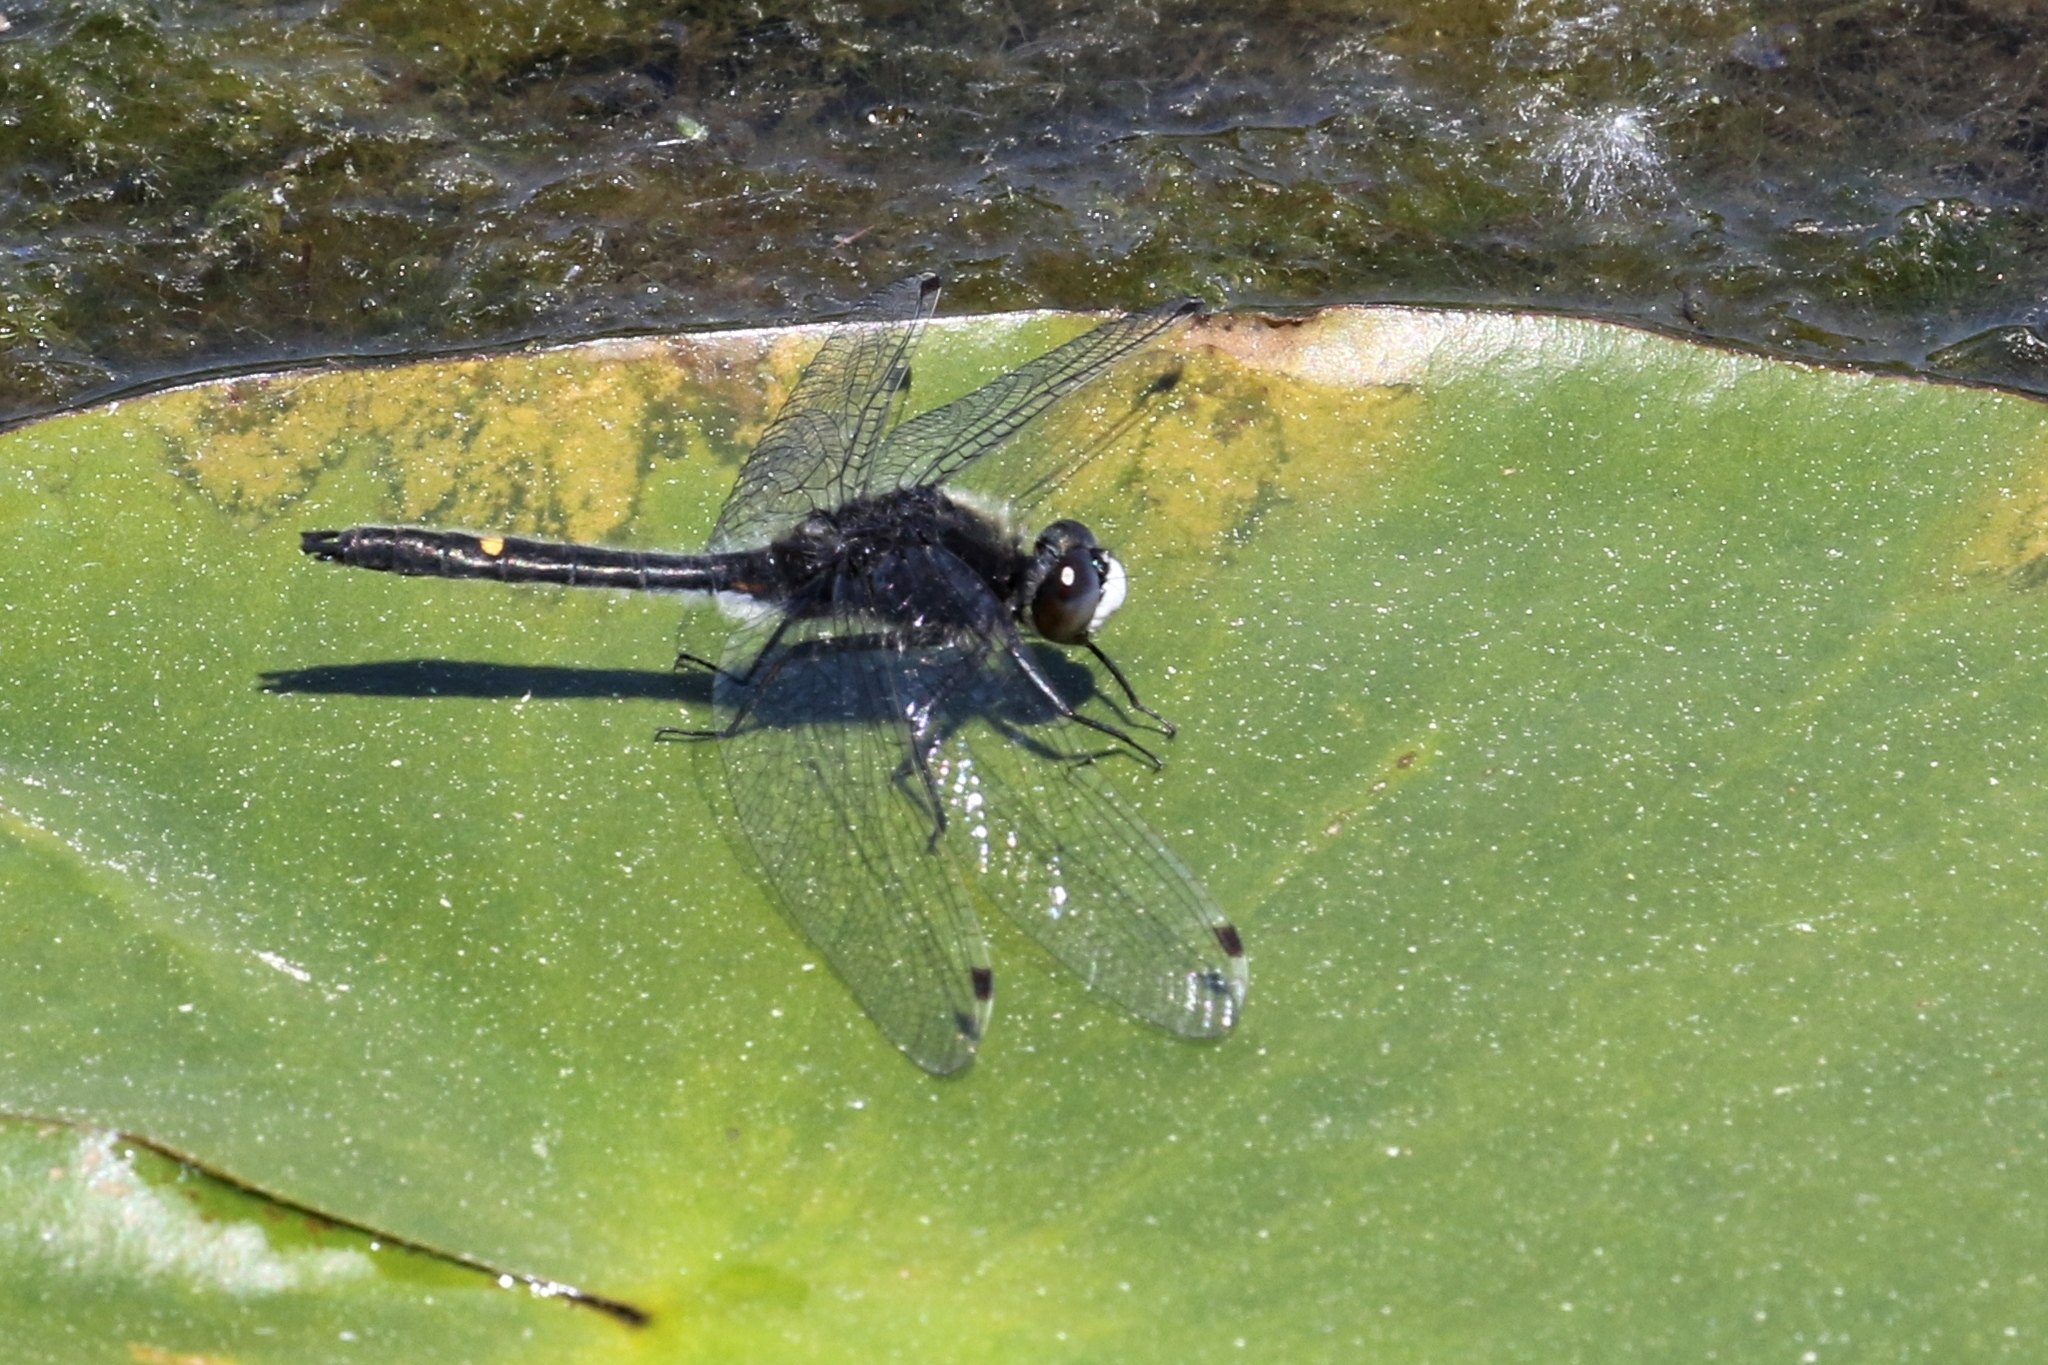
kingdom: Animalia
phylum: Arthropoda
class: Insecta
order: Odonata
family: Libellulidae
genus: Leucorrhinia
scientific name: Leucorrhinia intacta
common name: Dot-tailed whiteface
